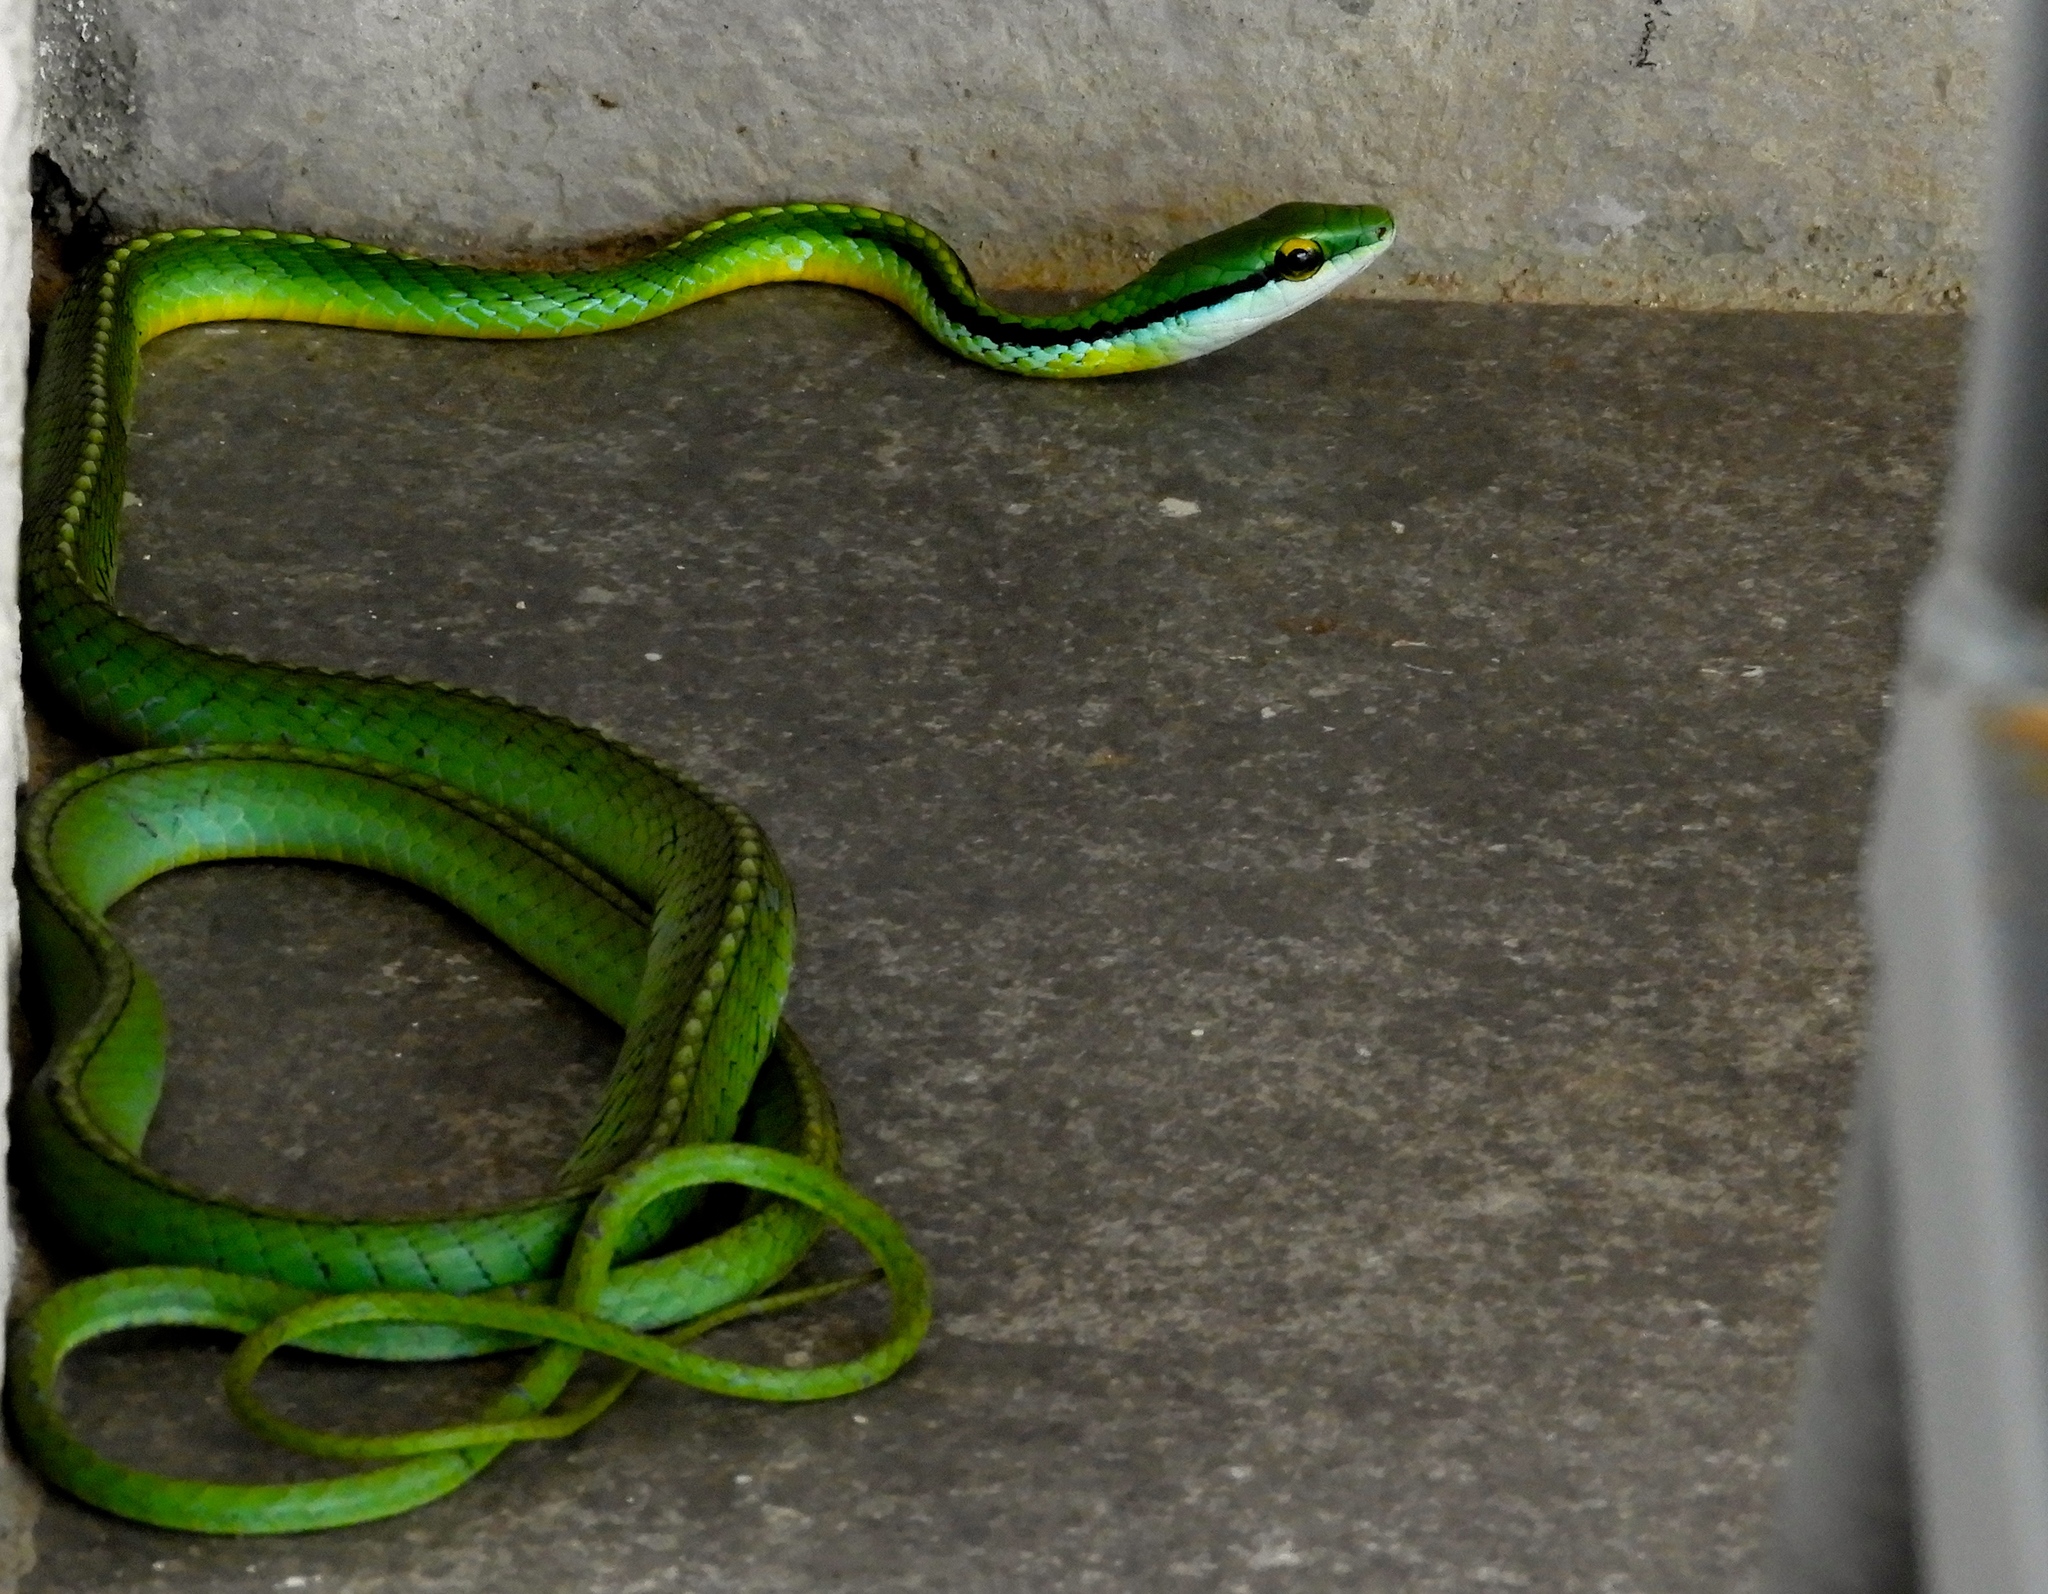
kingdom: Animalia
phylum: Chordata
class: Squamata
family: Colubridae
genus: Leptophis
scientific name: Leptophis diplotropis
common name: Pacific coast parrot snake
